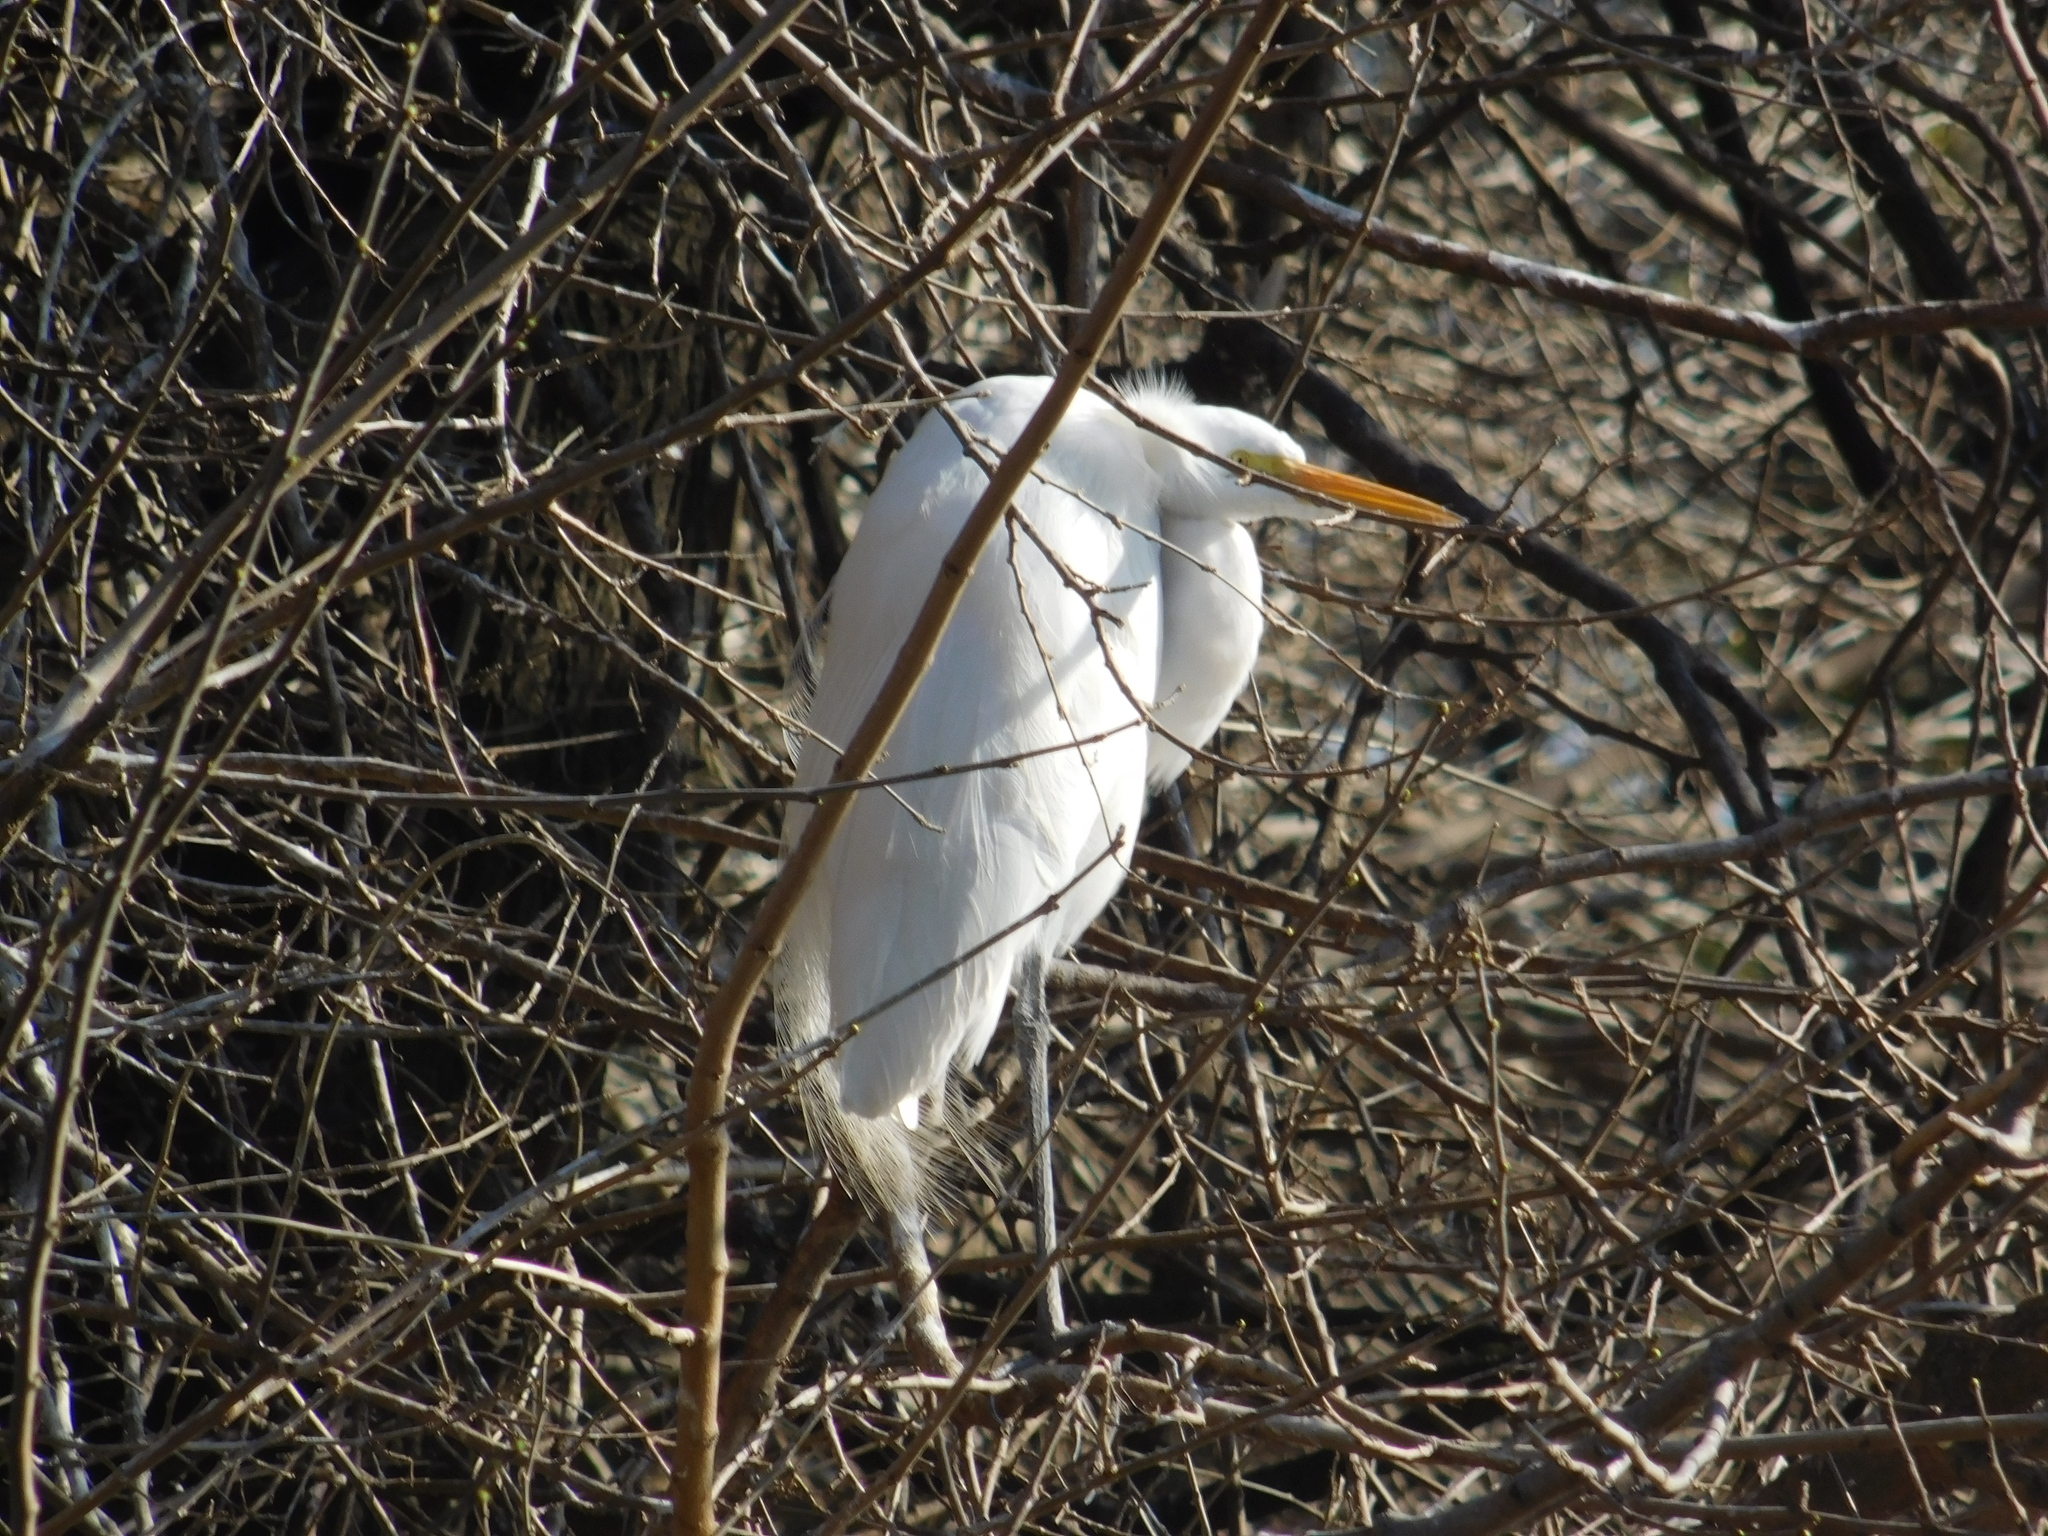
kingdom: Animalia
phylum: Chordata
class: Aves
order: Pelecaniformes
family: Ardeidae
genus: Ardea
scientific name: Ardea alba
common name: Great egret
